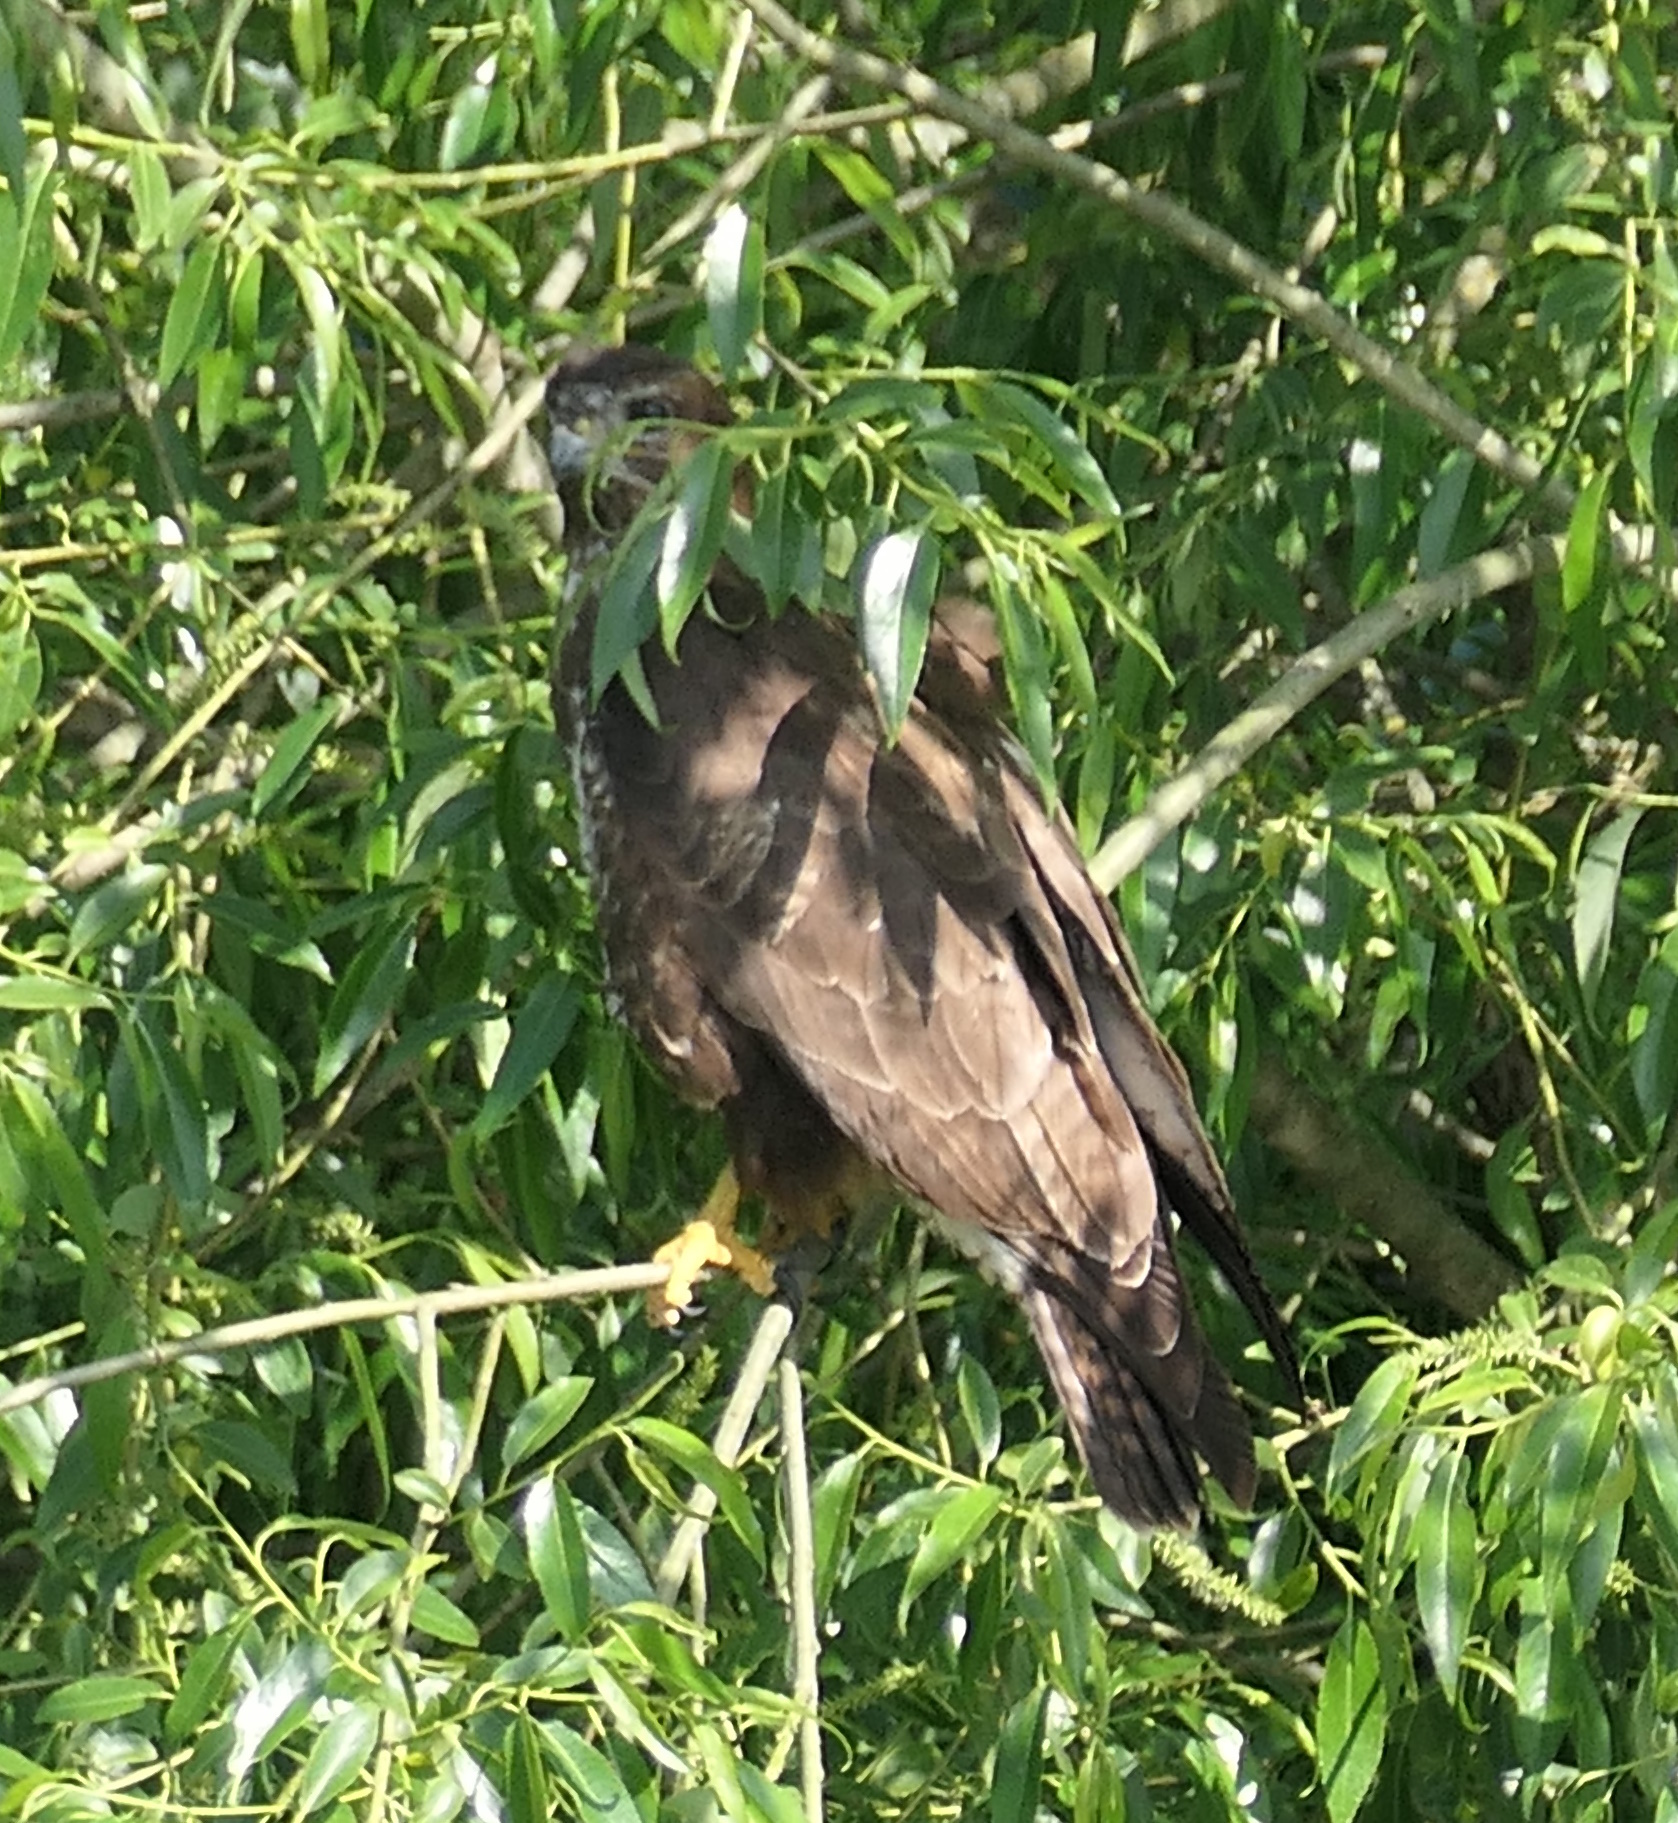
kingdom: Animalia
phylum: Chordata
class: Aves
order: Accipitriformes
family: Accipitridae
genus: Buteo
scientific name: Buteo buteo
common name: Common buzzard
